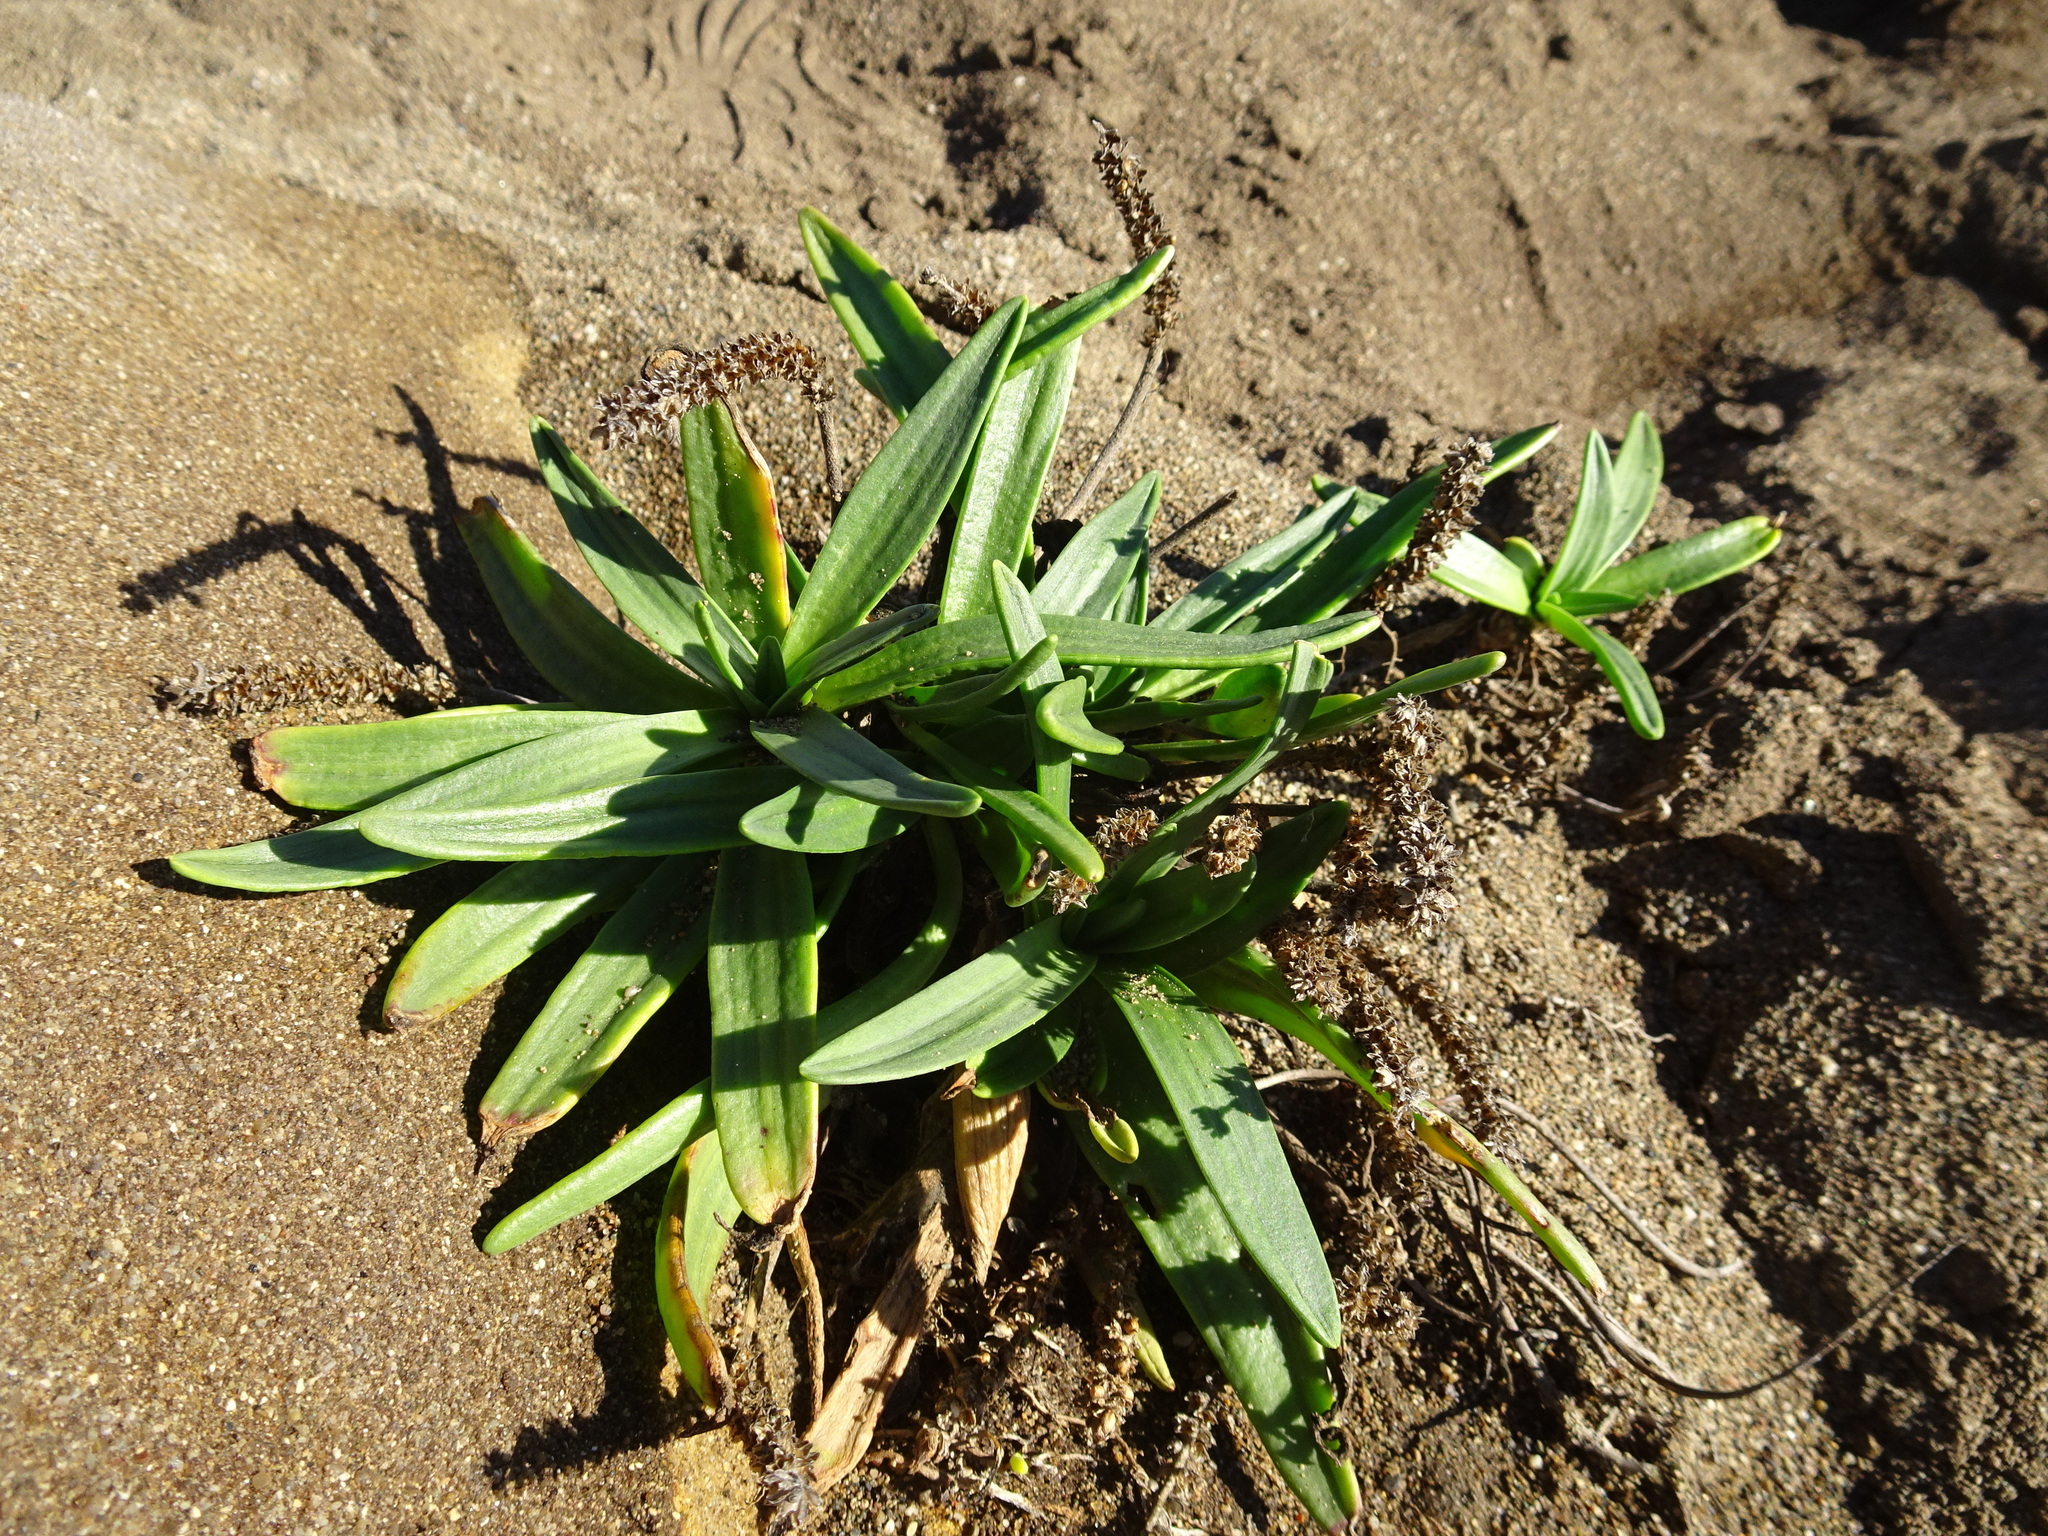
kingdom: Plantae
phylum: Tracheophyta
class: Magnoliopsida
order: Lamiales
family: Plantaginaceae
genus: Plantago
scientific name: Plantago maritima
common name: Sea plantain
